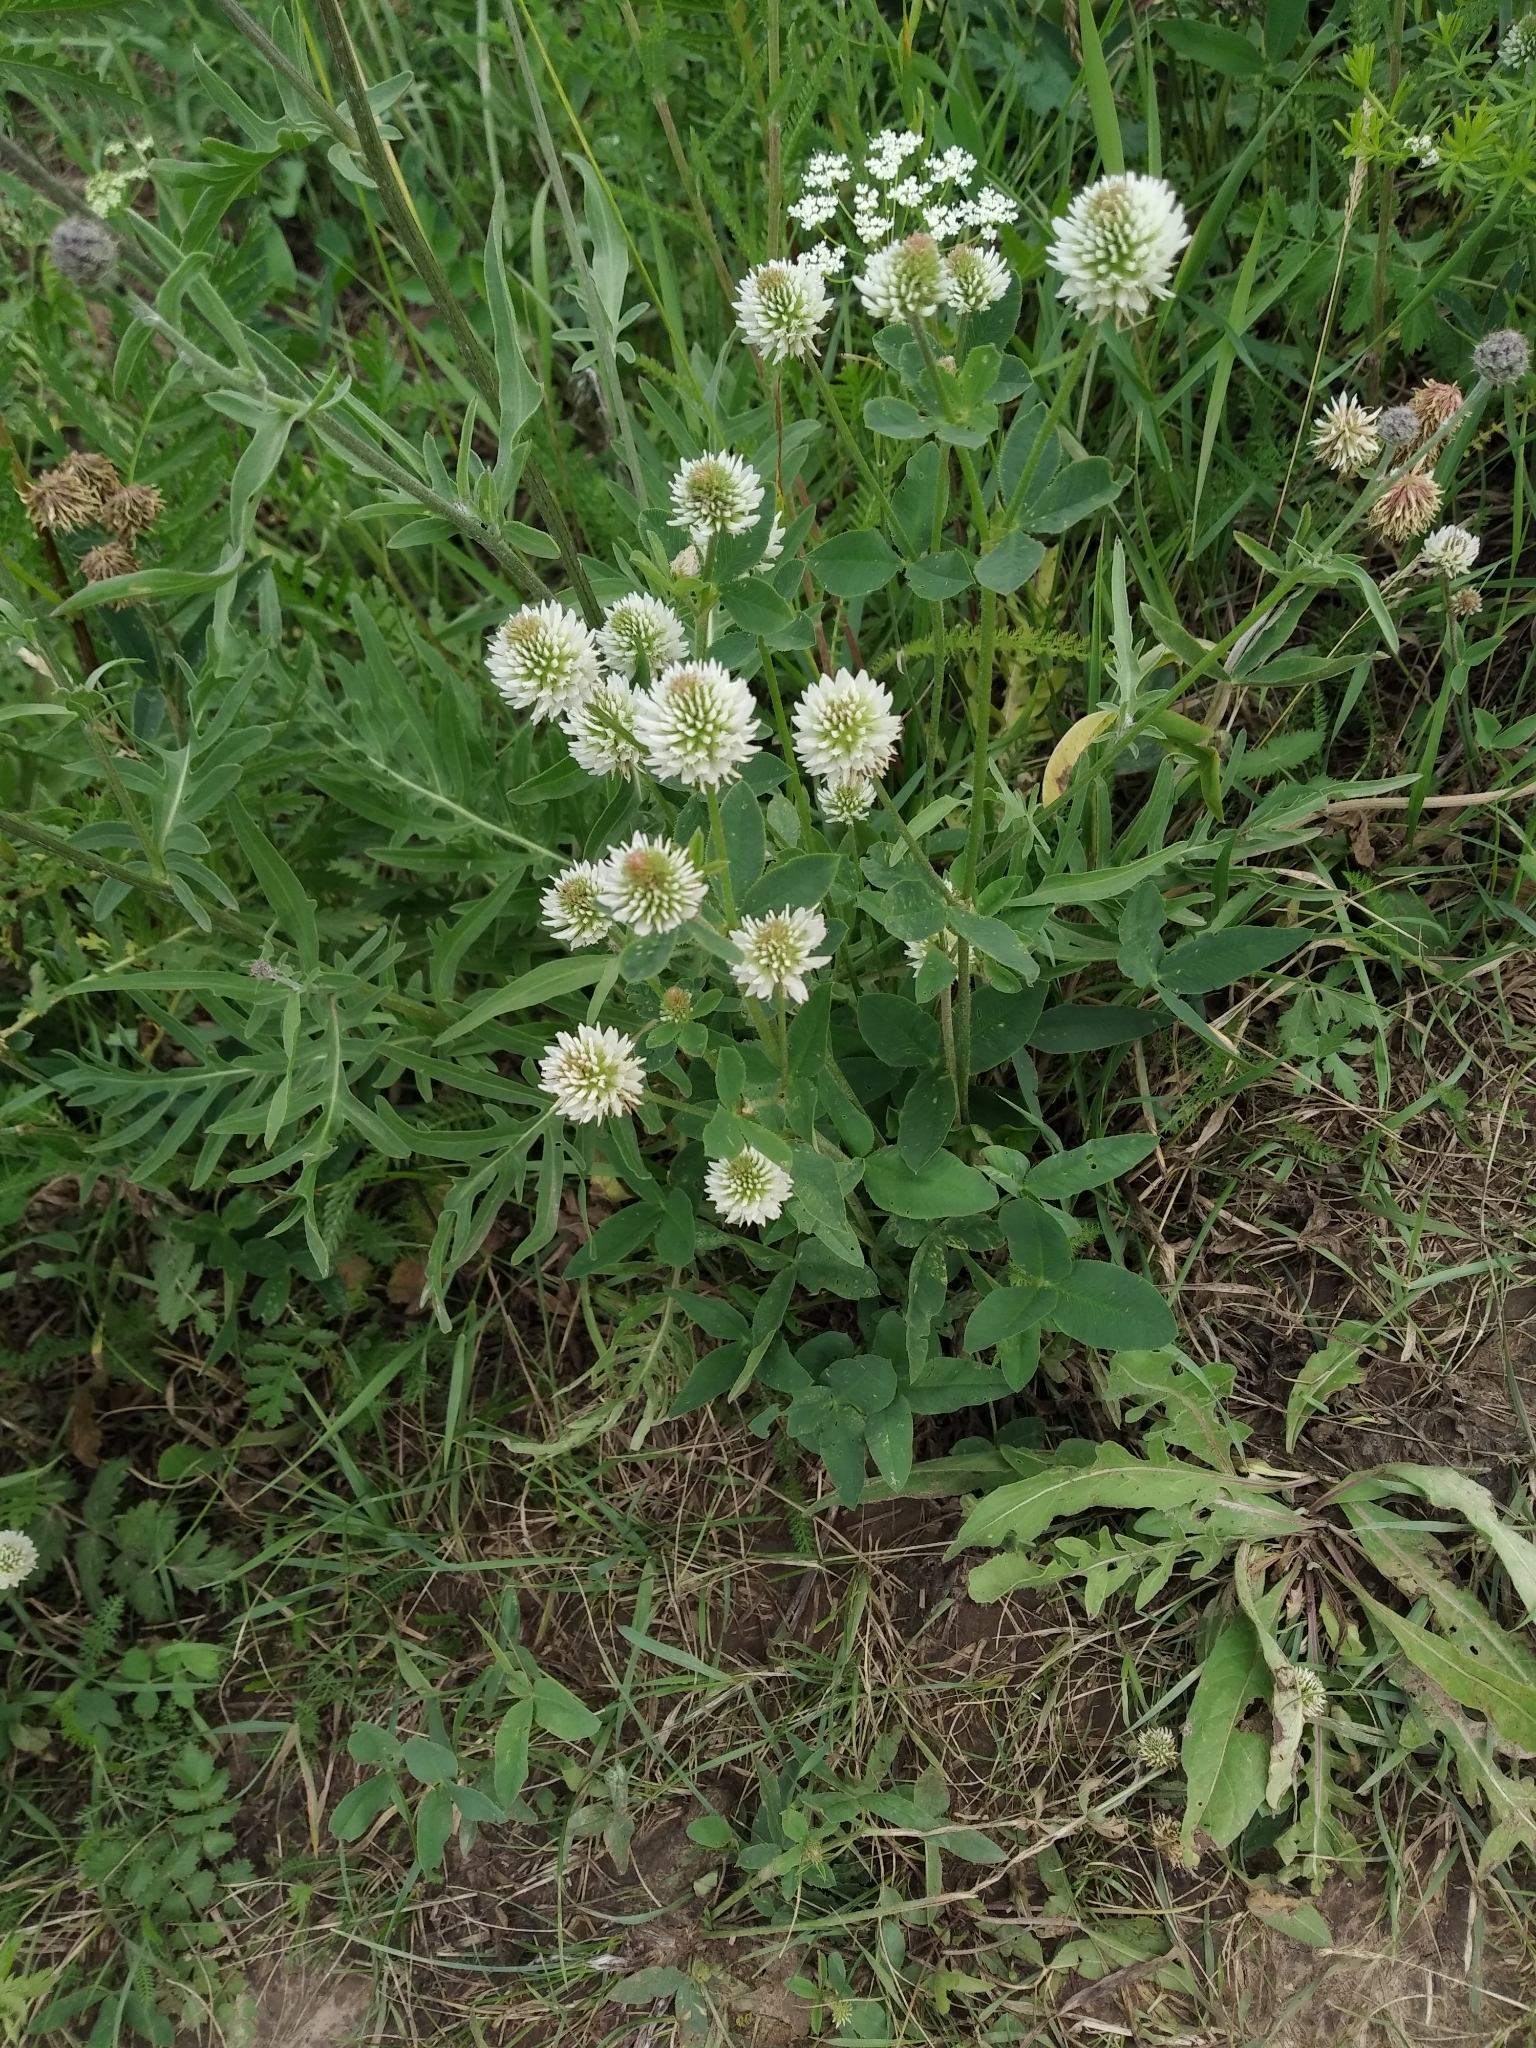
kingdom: Plantae
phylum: Tracheophyta
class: Magnoliopsida
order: Fabales
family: Fabaceae
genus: Trifolium
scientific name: Trifolium montanum
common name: Mountain clover
